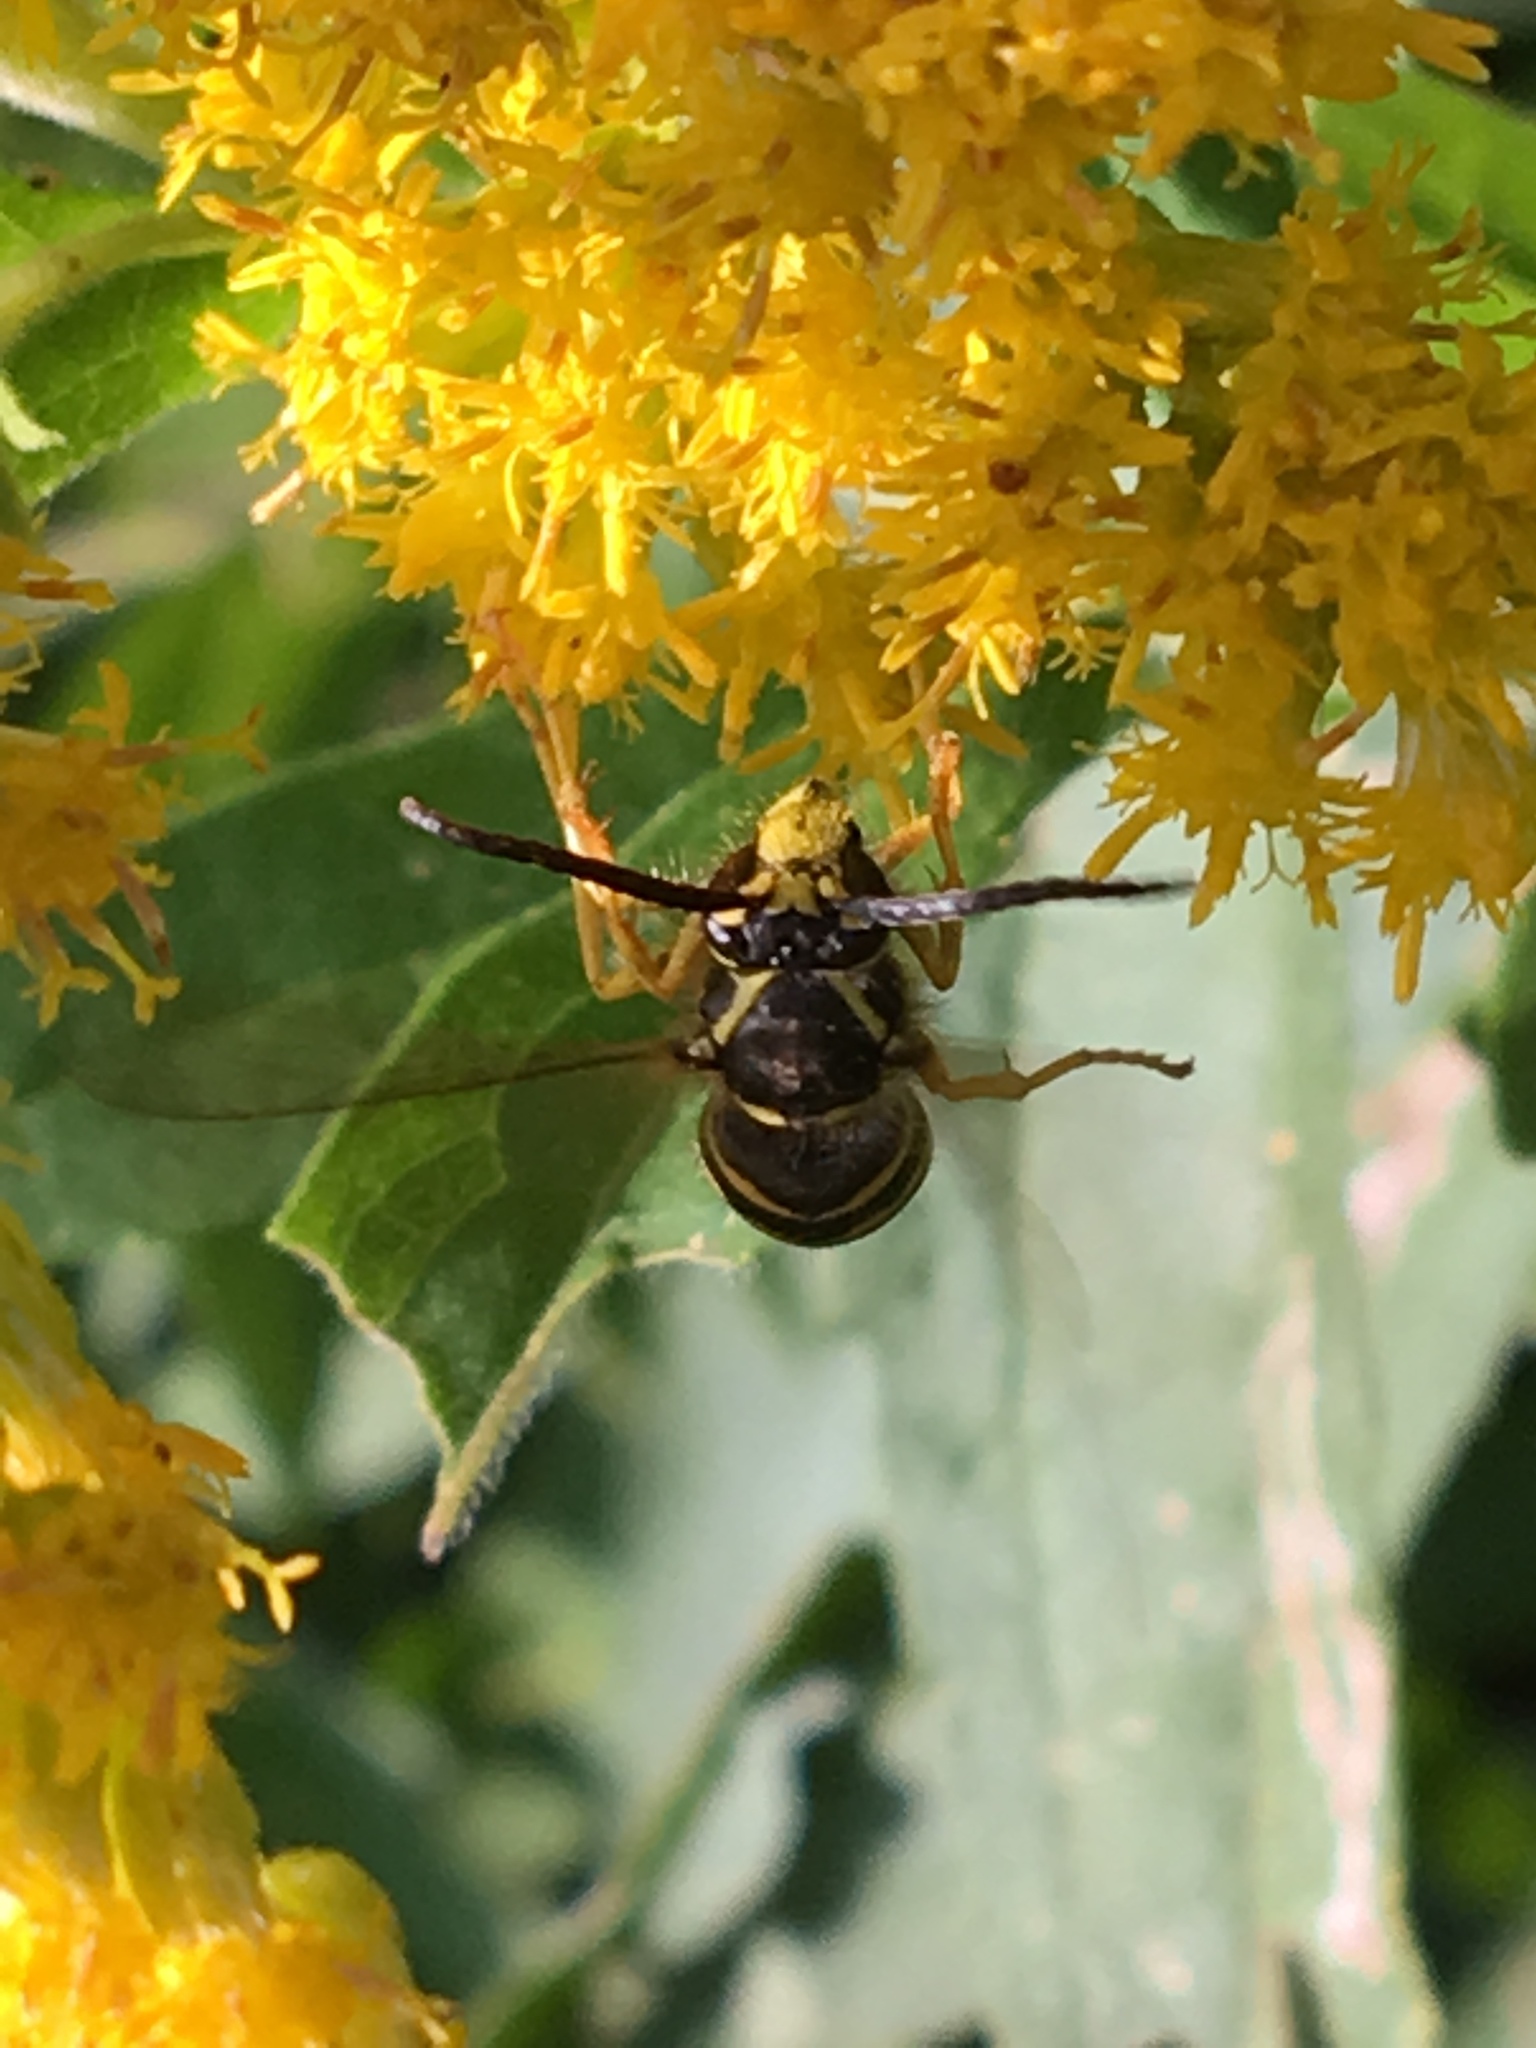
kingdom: Animalia
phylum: Arthropoda
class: Insecta
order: Hymenoptera
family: Vespidae
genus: Dolichovespula
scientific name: Dolichovespula arenaria
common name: Aerial yellowjacket
